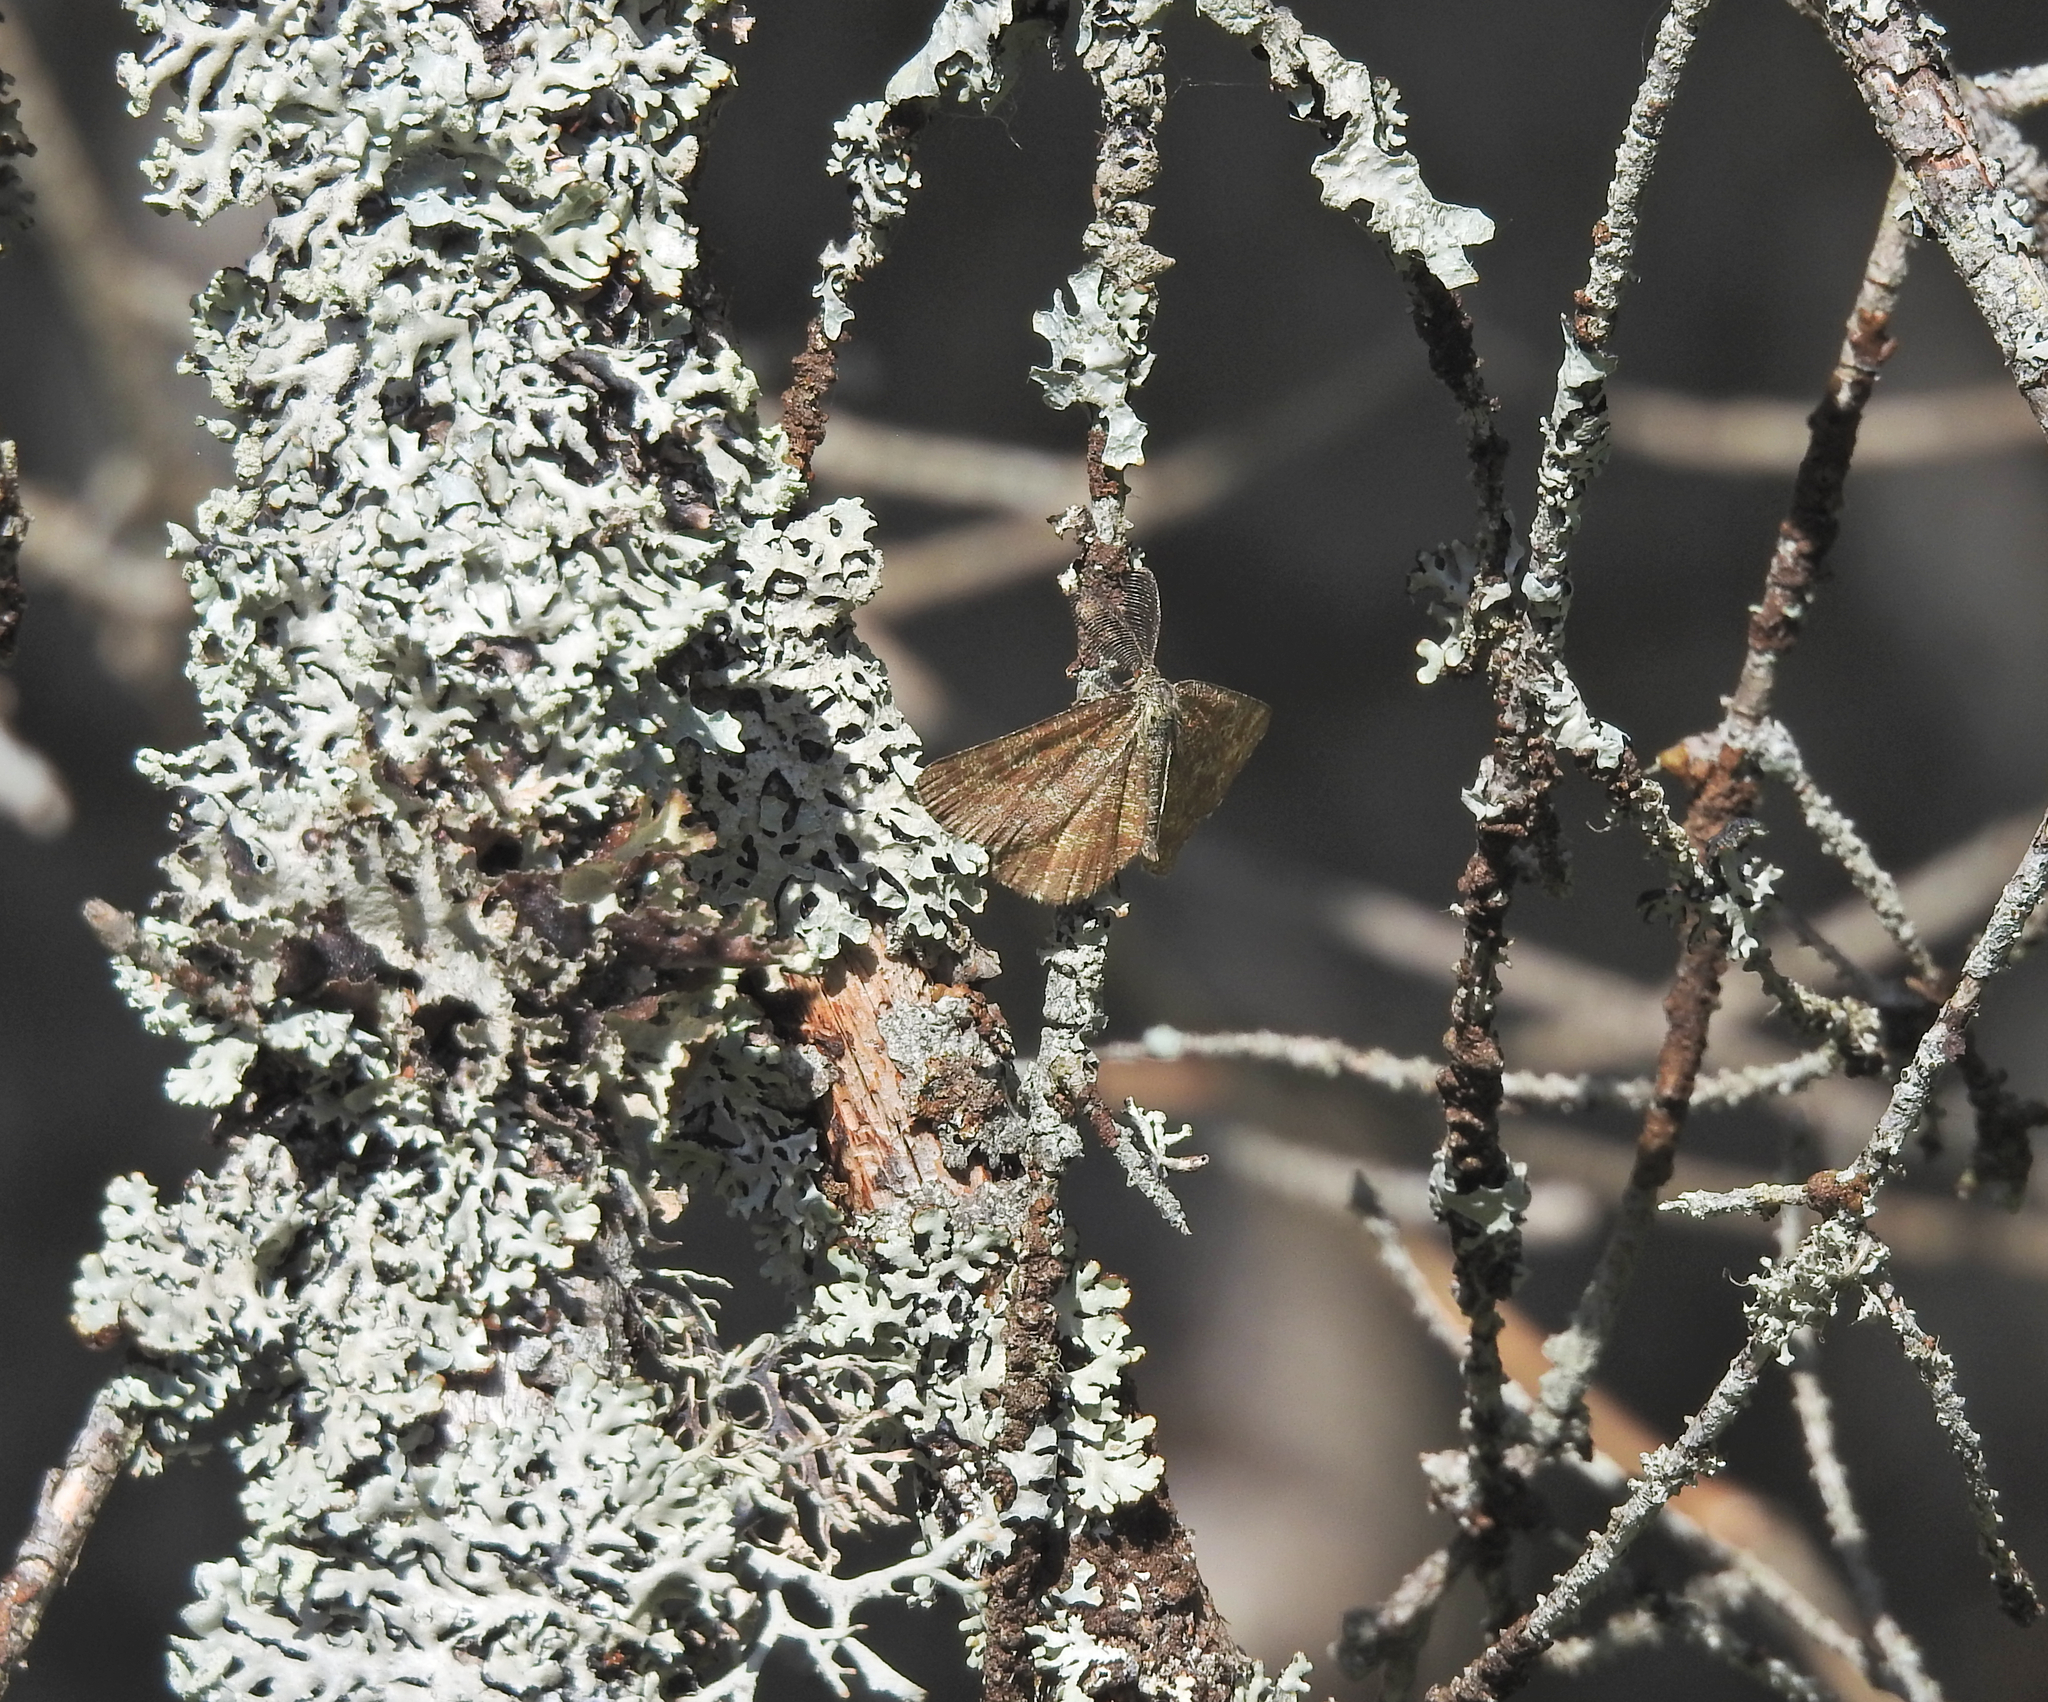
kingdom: Animalia
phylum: Arthropoda
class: Insecta
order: Lepidoptera
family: Geometridae
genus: Ematurga
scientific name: Ematurga atomaria
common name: Common heath
